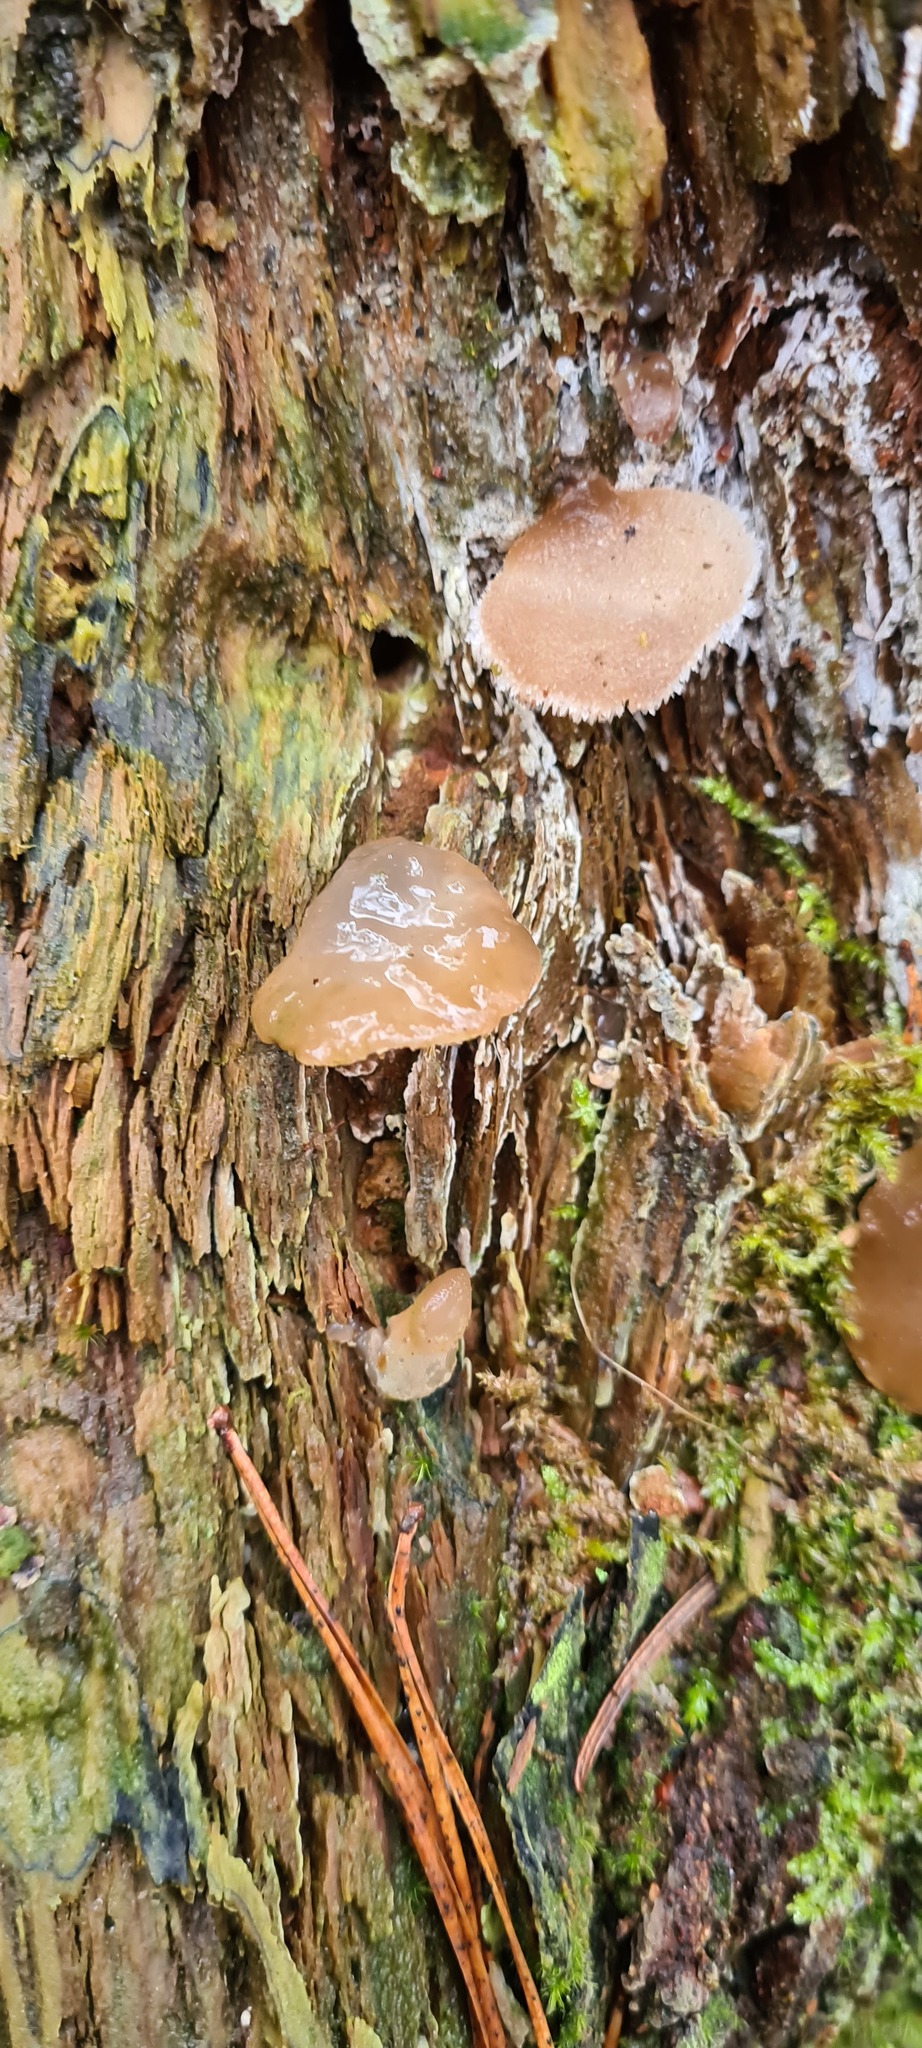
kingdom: Fungi
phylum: Basidiomycota
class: Agaricomycetes
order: Auriculariales
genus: Pseudohydnum
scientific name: Pseudohydnum gelatinosum
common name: Jelly tongue
